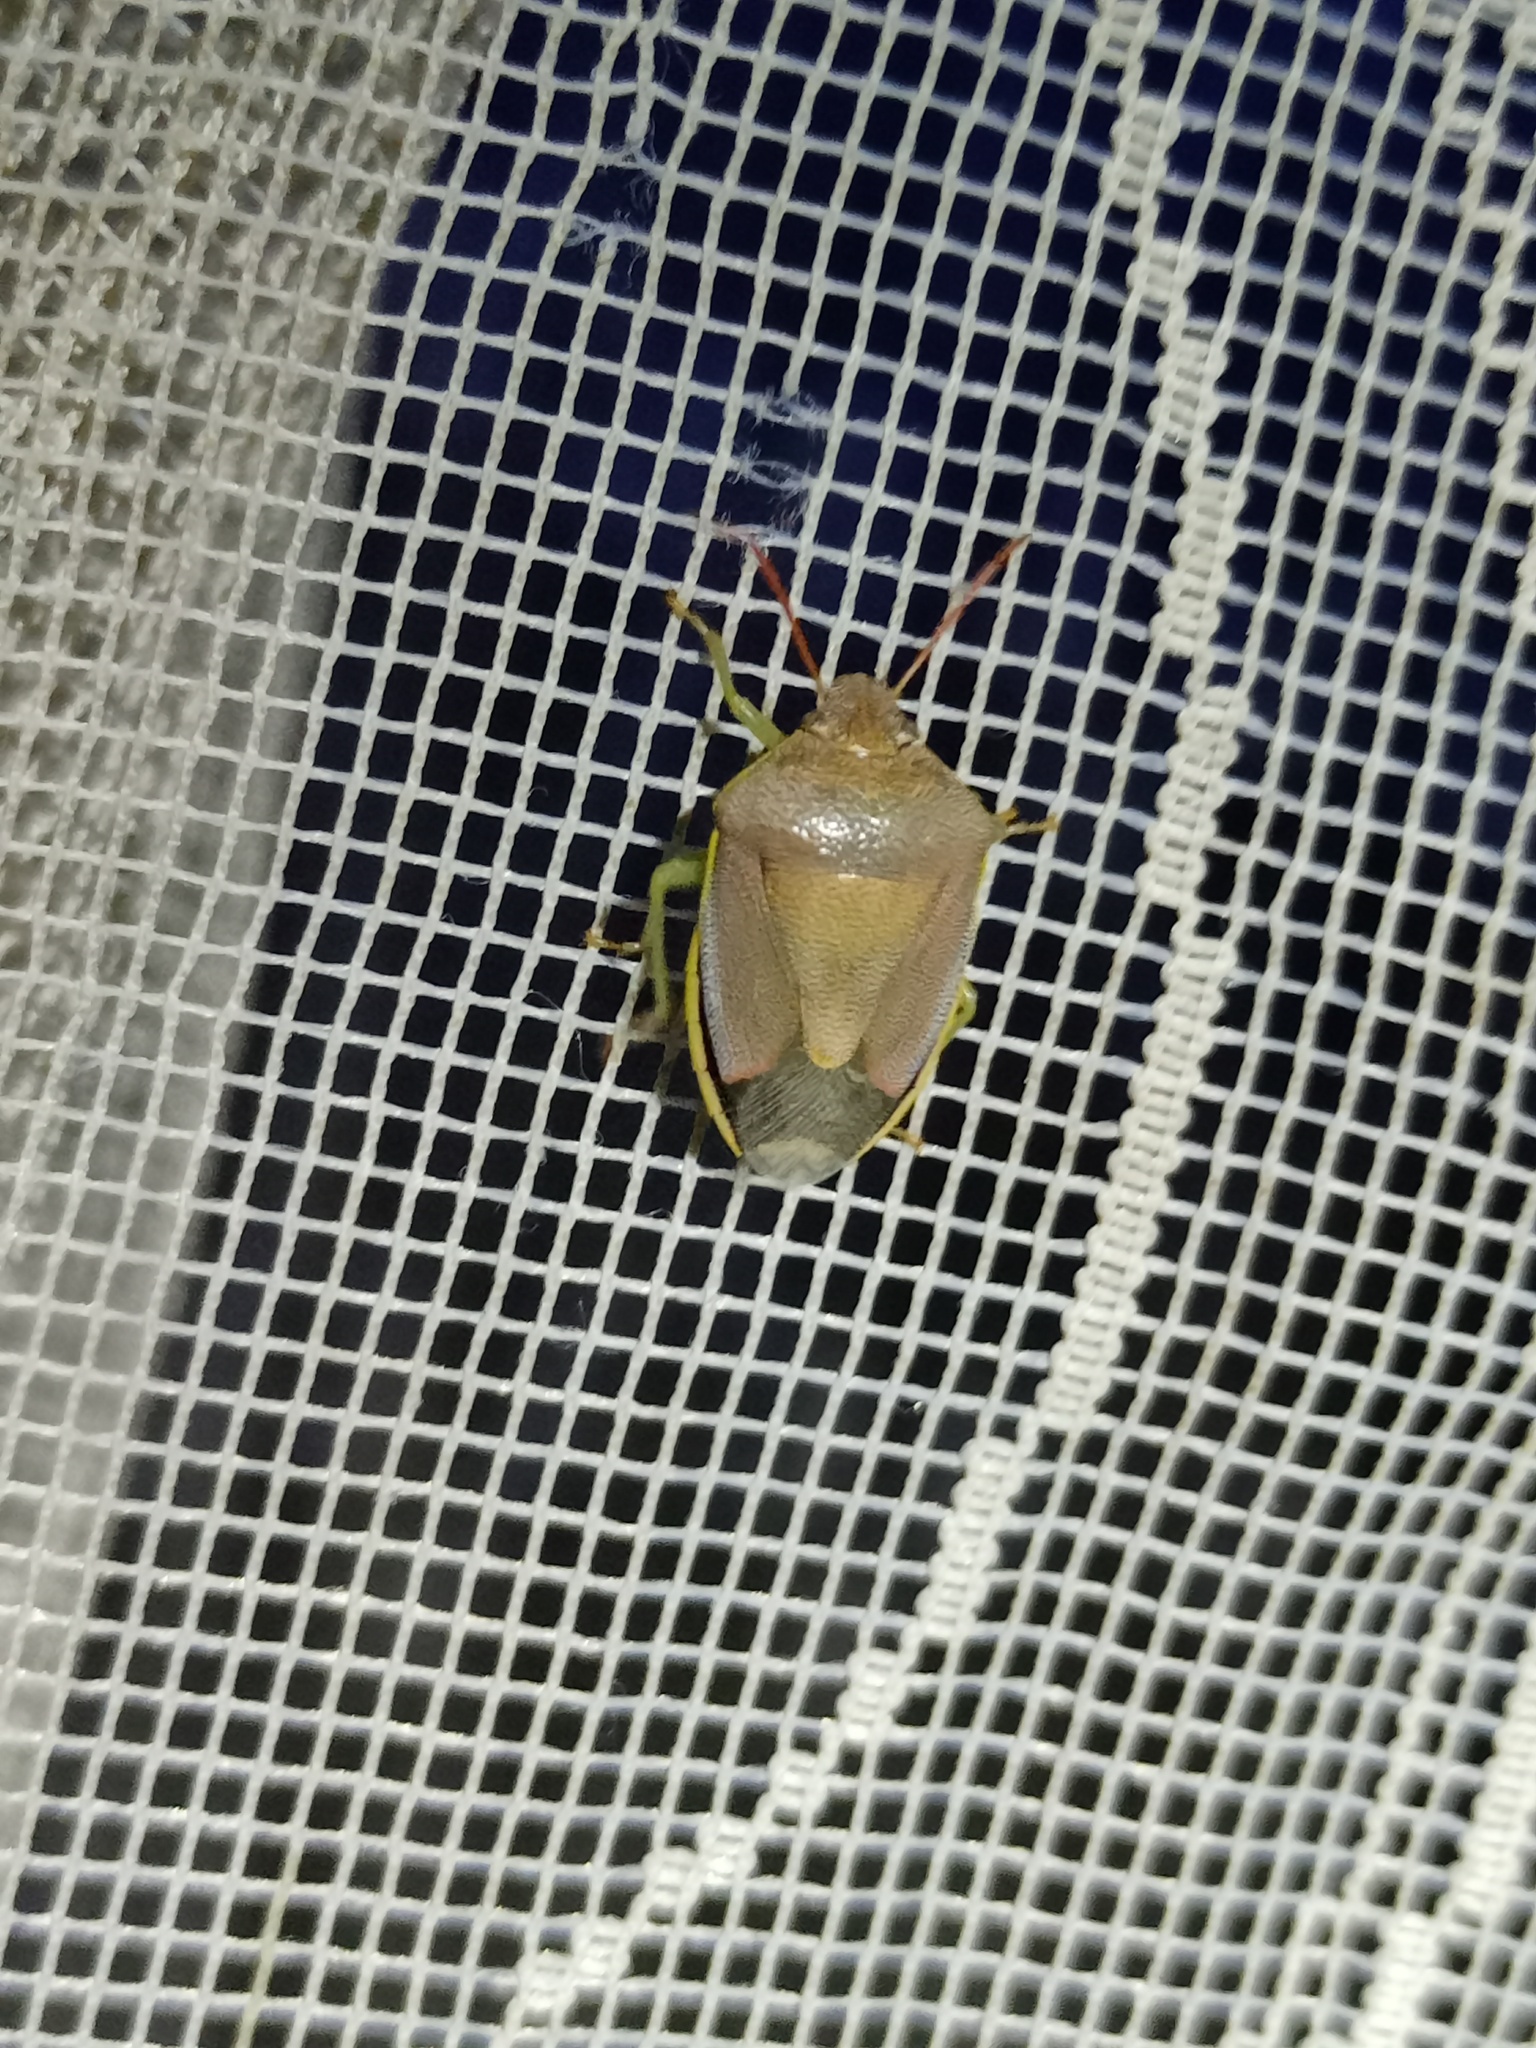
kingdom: Animalia
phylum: Arthropoda
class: Insecta
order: Hemiptera
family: Pentatomidae
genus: Piezodorus
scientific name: Piezodorus lituratus
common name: Stink bug
